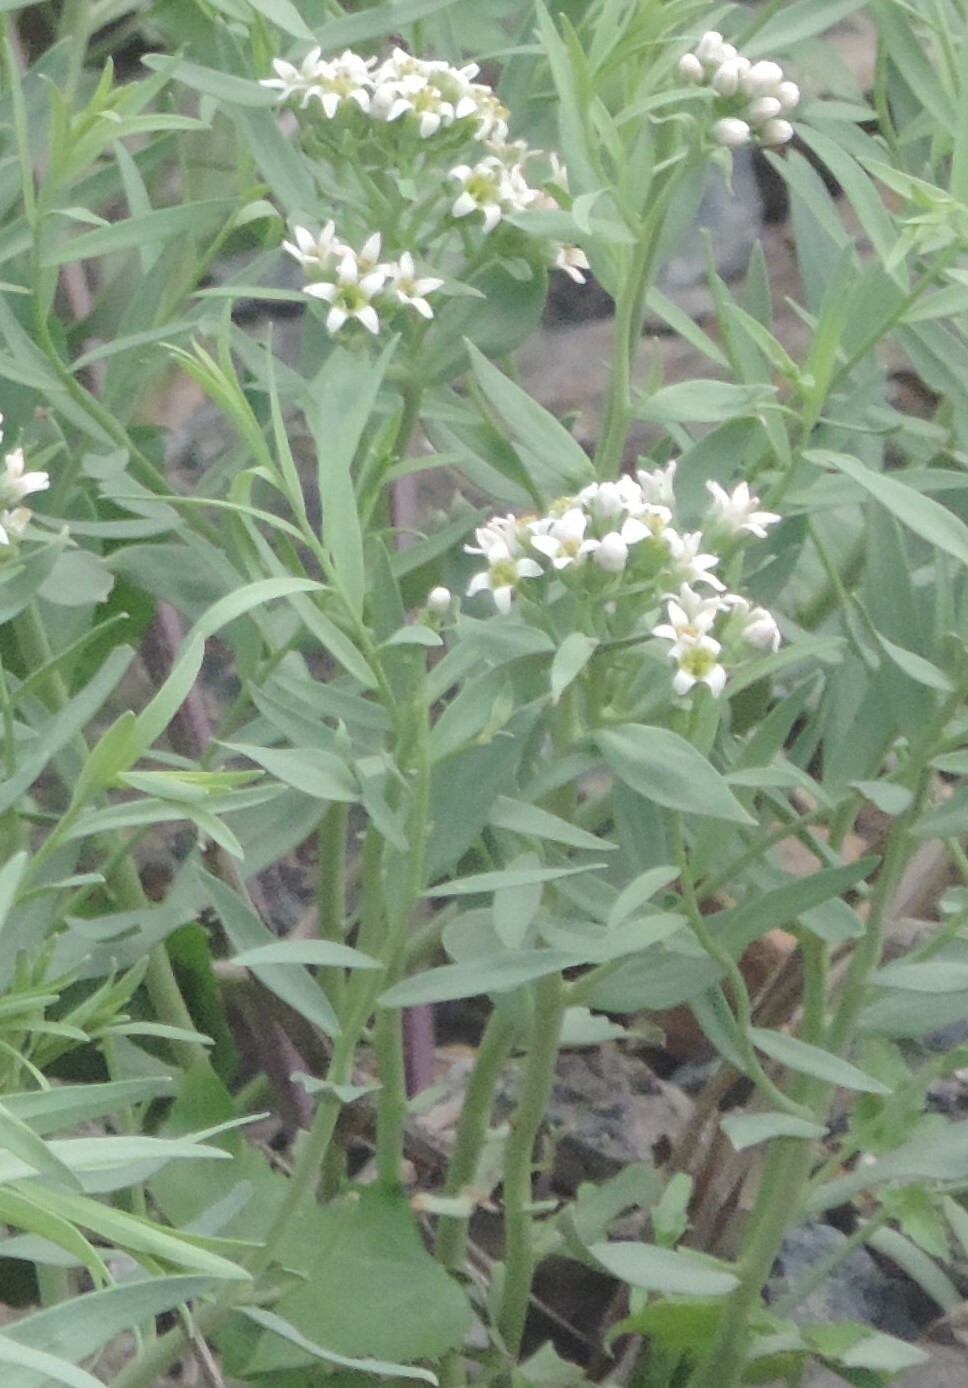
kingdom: Plantae
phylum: Tracheophyta
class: Magnoliopsida
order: Santalales
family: Comandraceae
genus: Comandra
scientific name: Comandra umbellata
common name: Bastard toadflax
